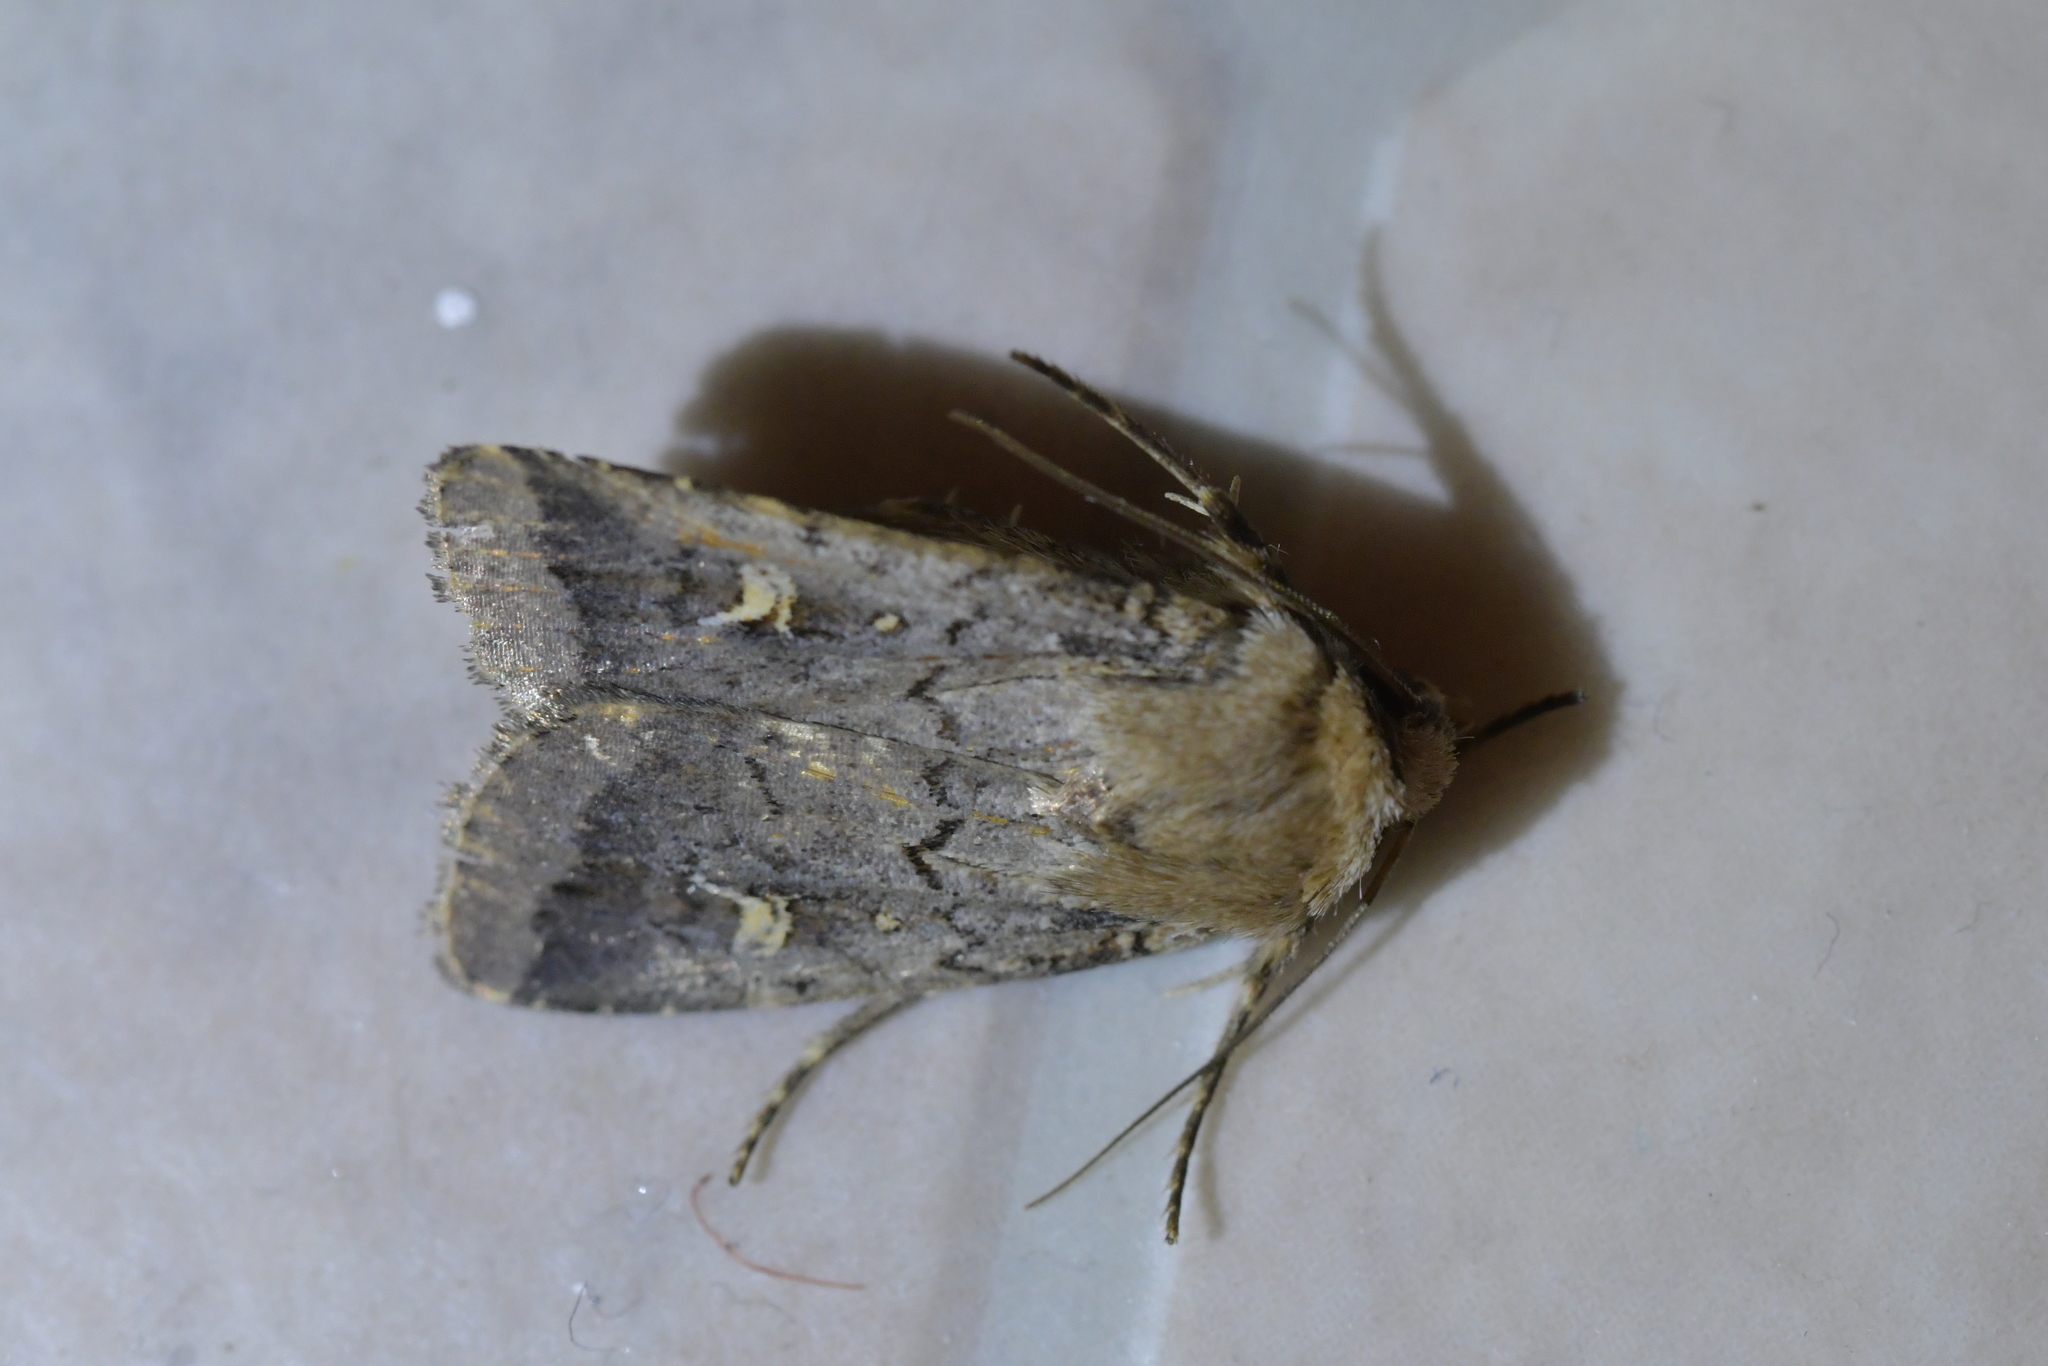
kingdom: Animalia
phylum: Arthropoda
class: Insecta
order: Lepidoptera
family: Noctuidae
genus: Proteuxoa
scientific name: Proteuxoa tetronycha
